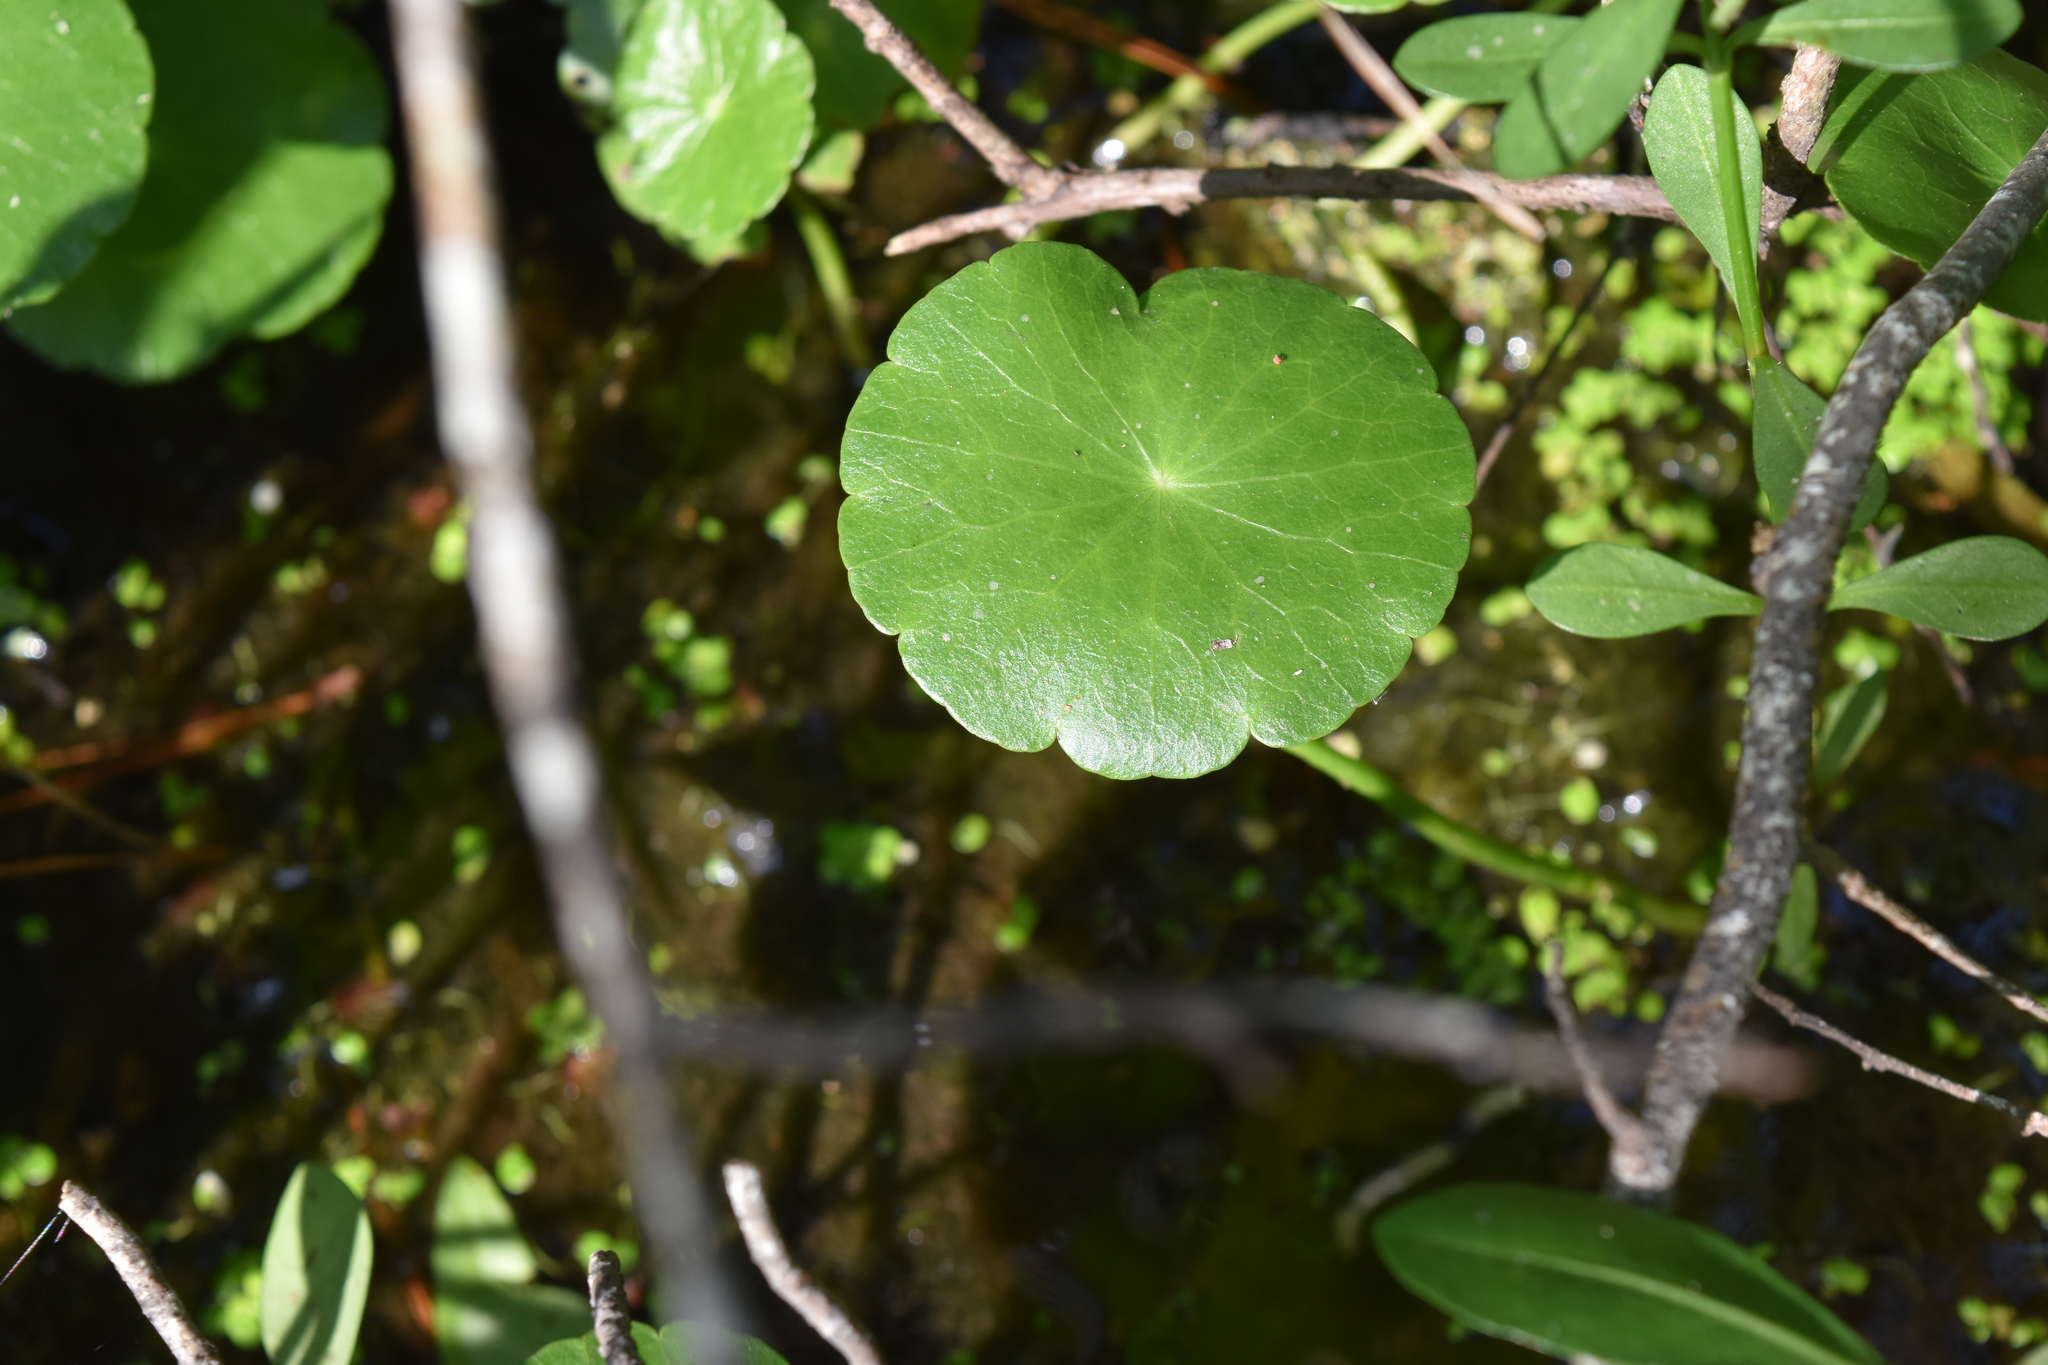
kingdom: Plantae
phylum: Tracheophyta
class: Magnoliopsida
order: Apiales
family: Araliaceae
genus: Hydrocotyle
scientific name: Hydrocotyle
